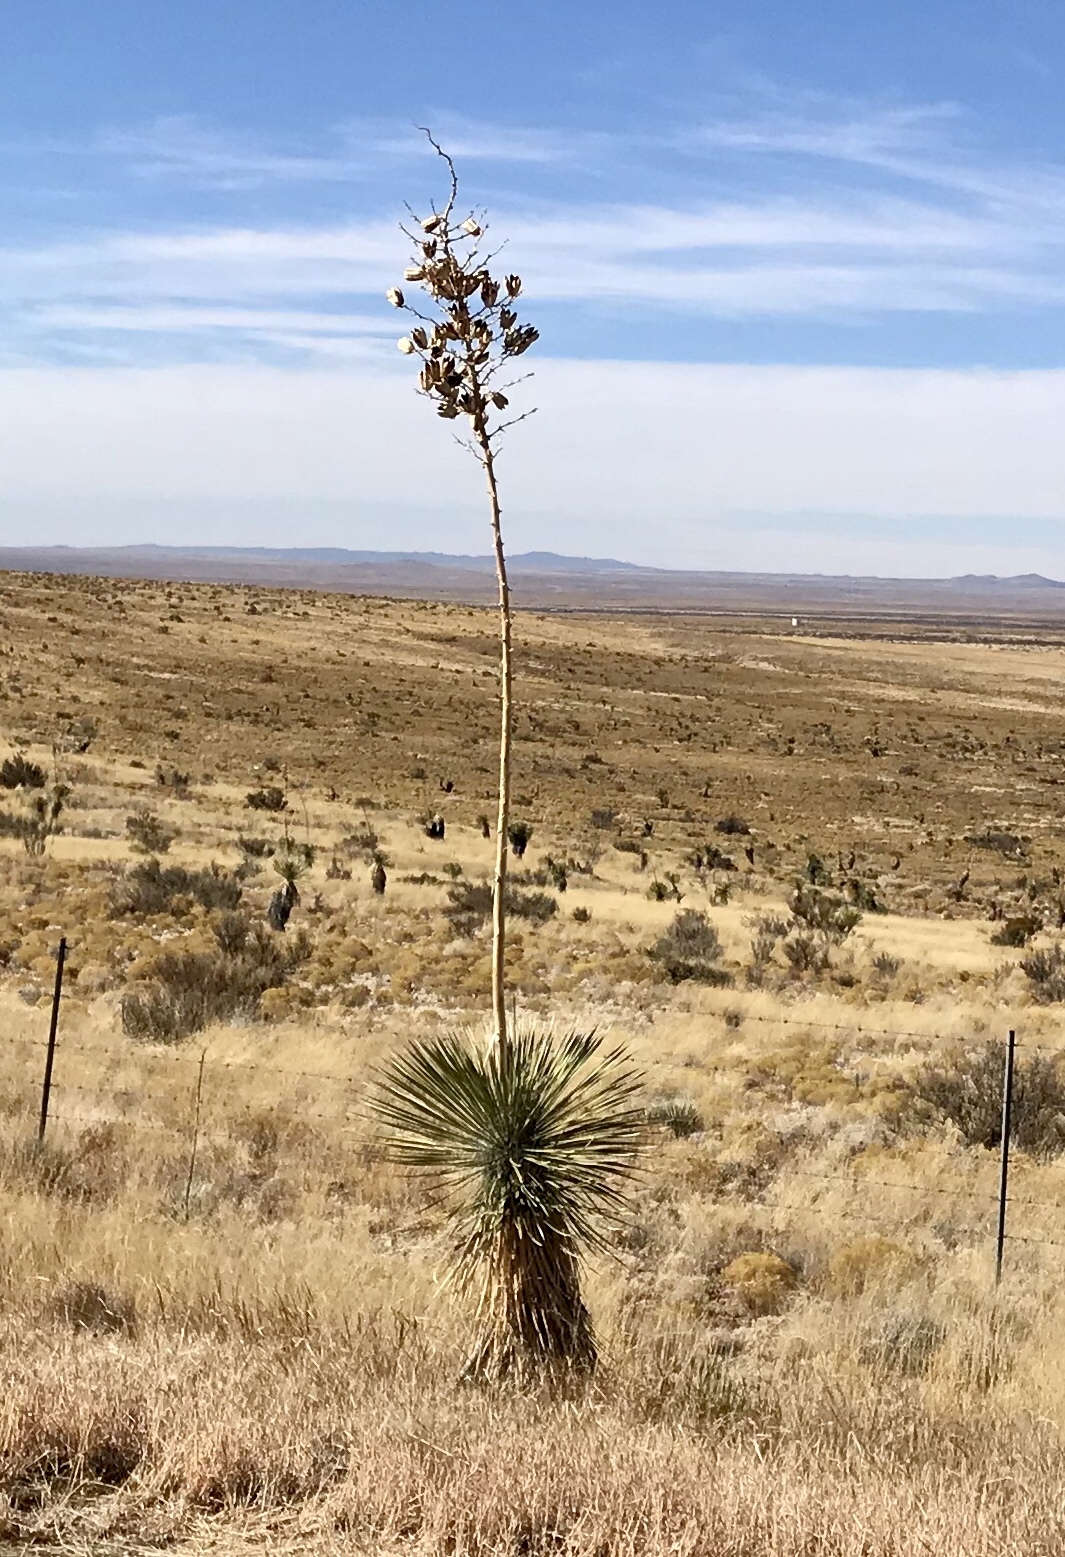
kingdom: Plantae
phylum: Tracheophyta
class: Liliopsida
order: Asparagales
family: Asparagaceae
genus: Yucca
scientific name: Yucca elata
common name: Palmella
